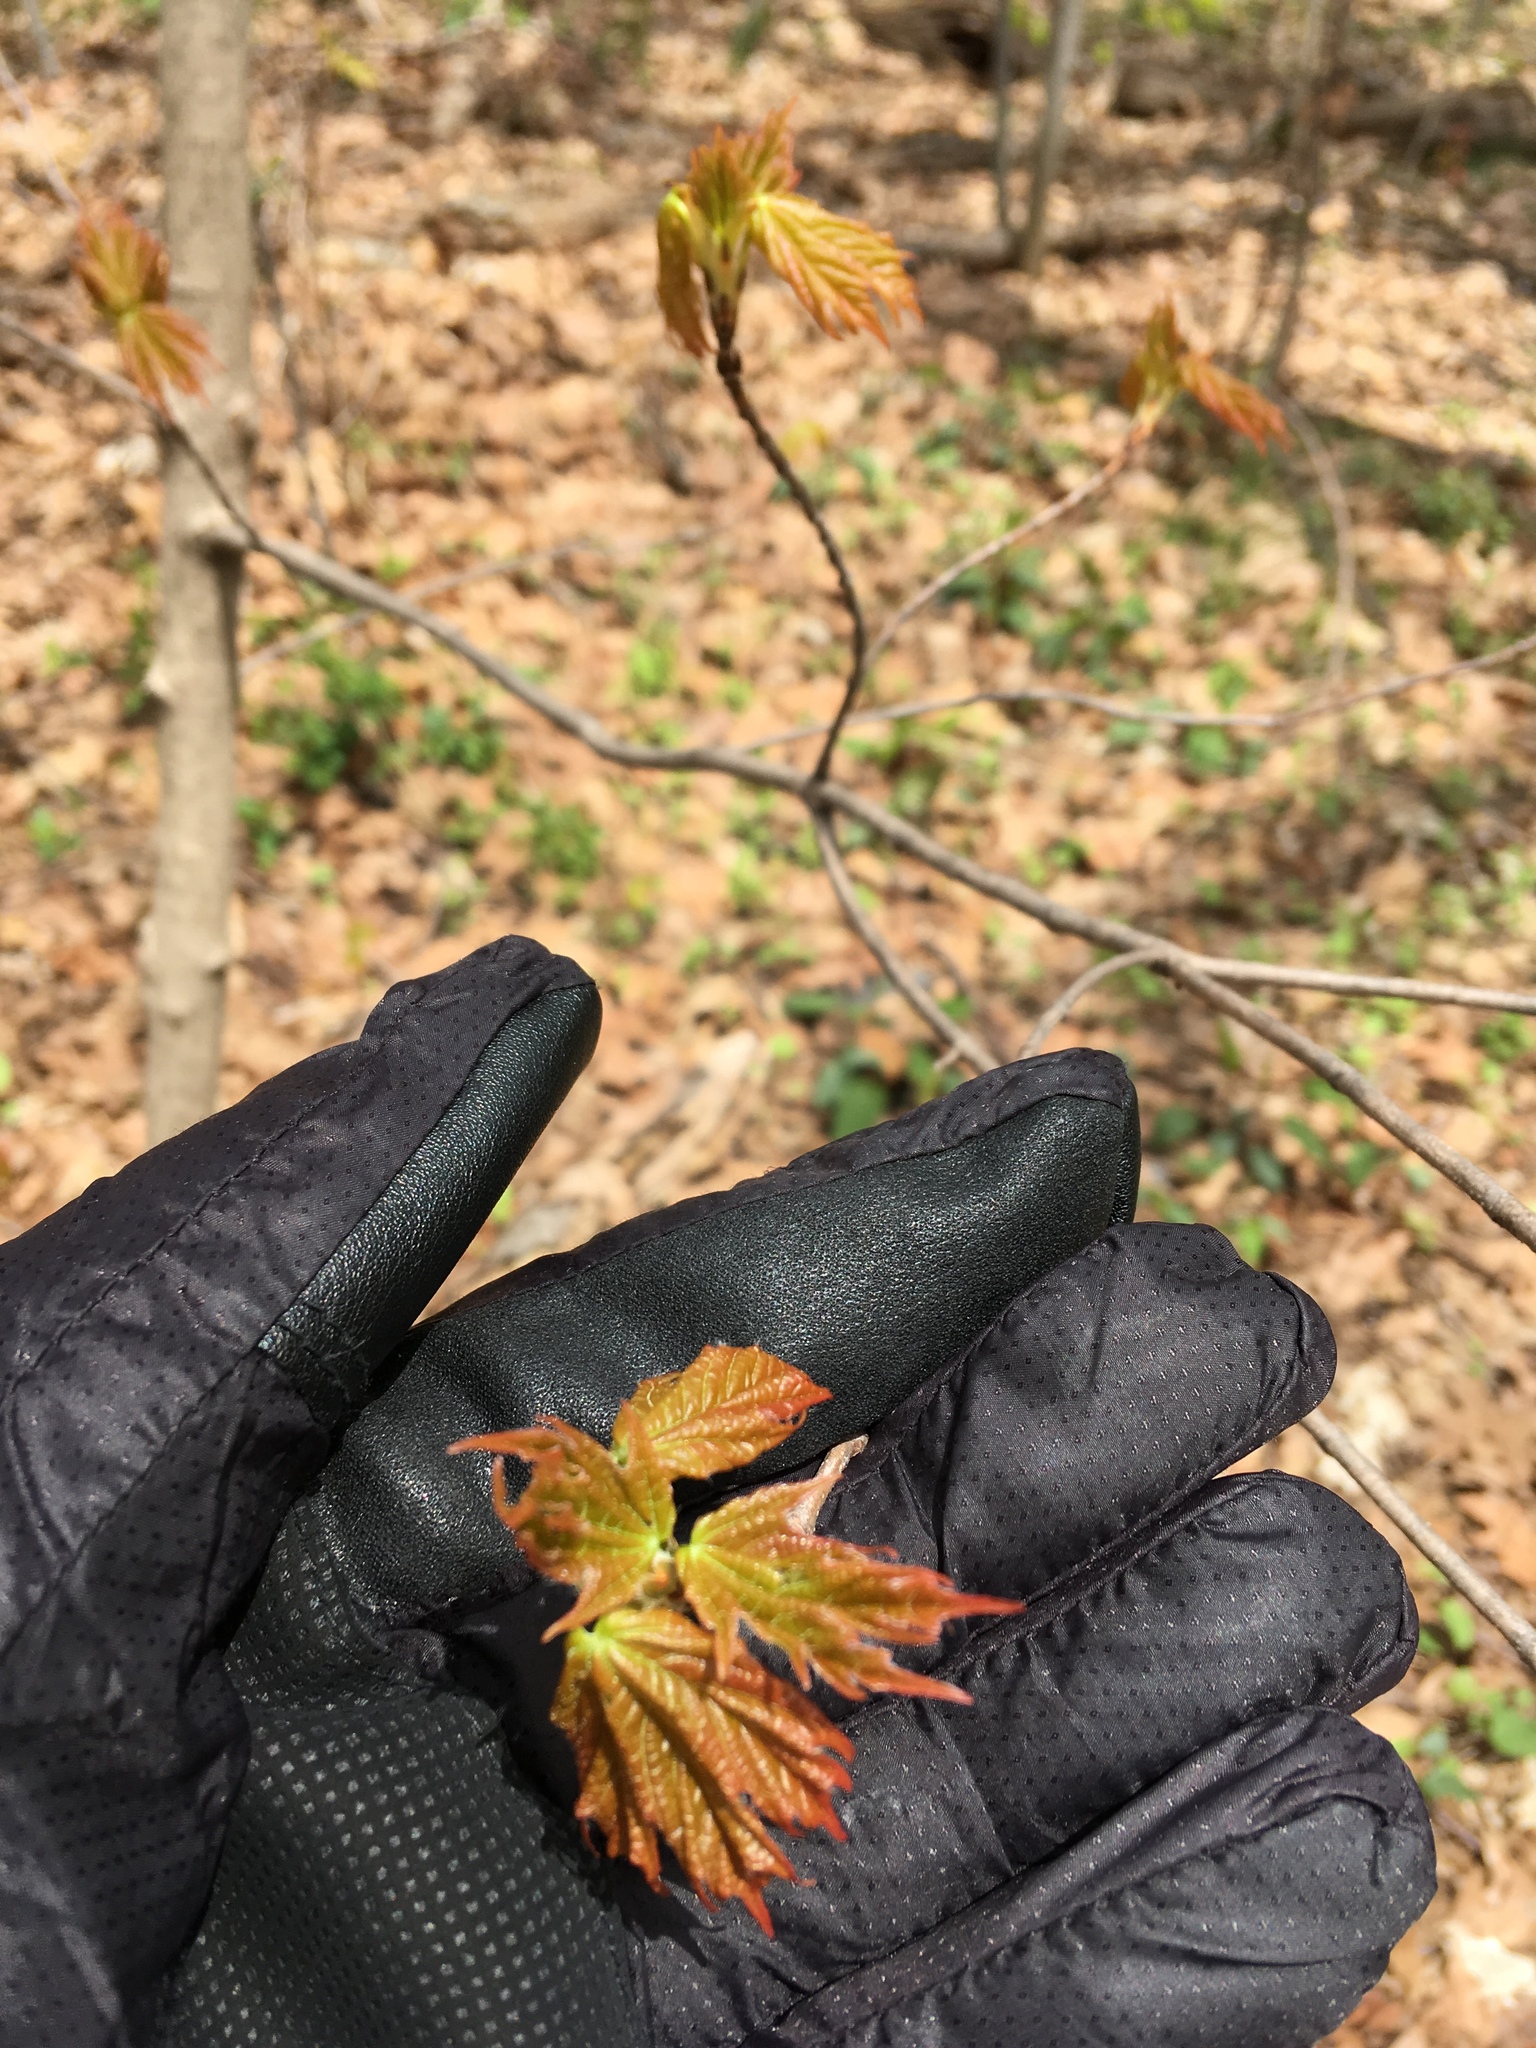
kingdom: Plantae
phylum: Tracheophyta
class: Magnoliopsida
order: Sapindales
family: Sapindaceae
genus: Acer
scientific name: Acer rubrum
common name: Red maple
